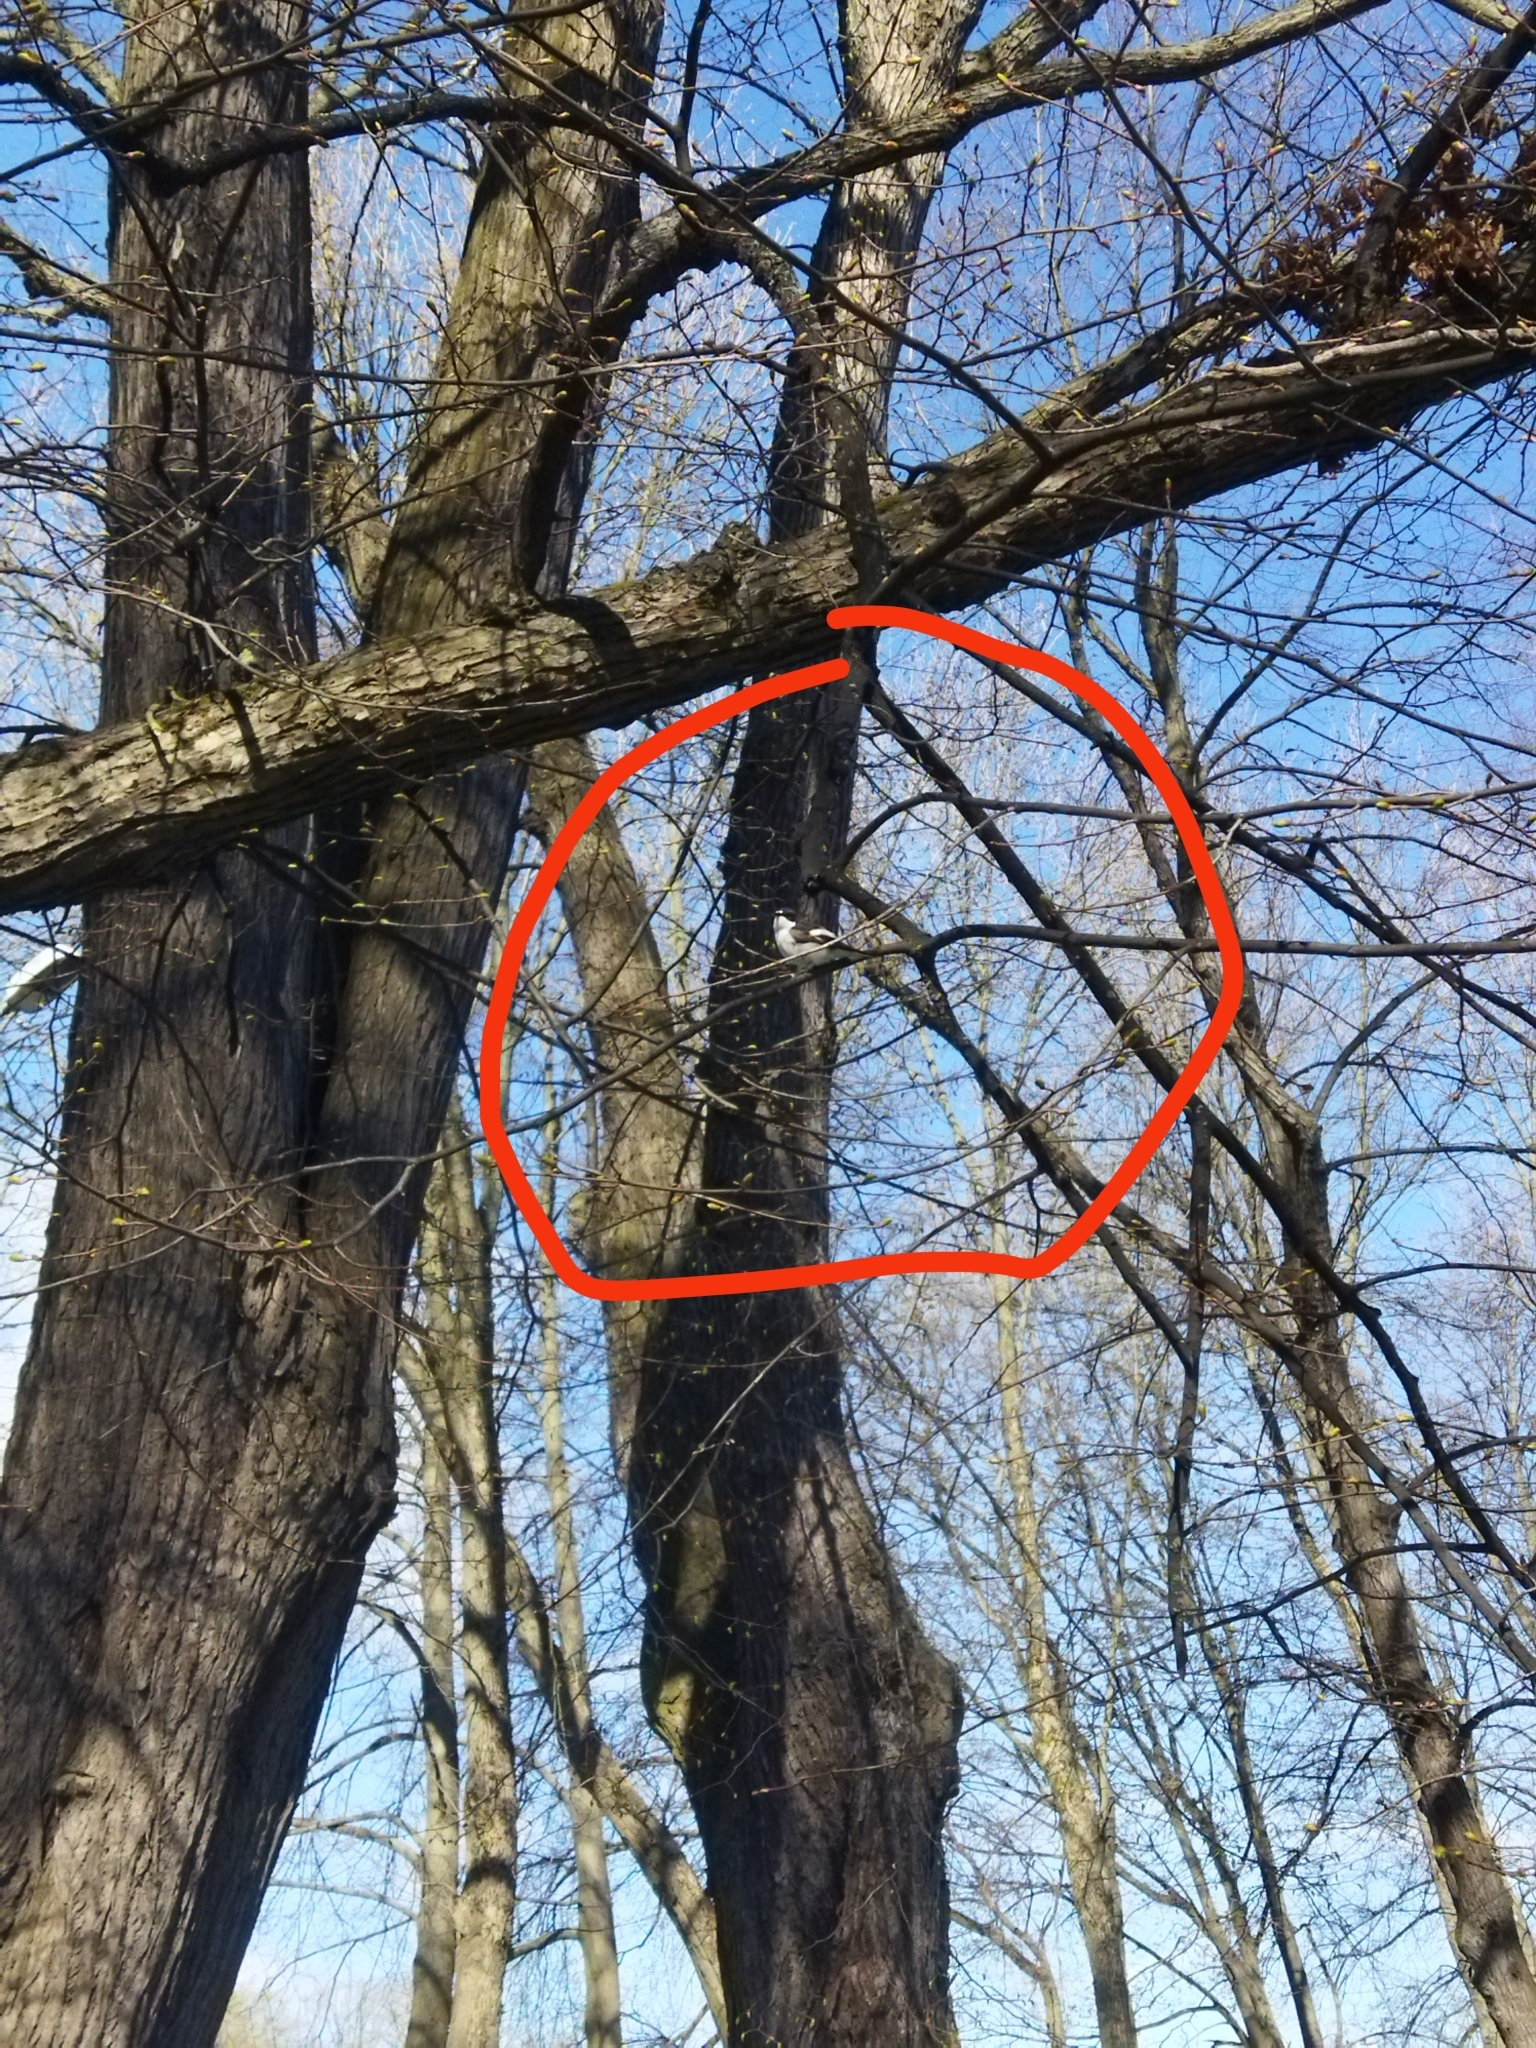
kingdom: Animalia
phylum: Chordata
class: Aves
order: Passeriformes
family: Muscicapidae
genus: Ficedula
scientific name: Ficedula hypoleuca
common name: European pied flycatcher
